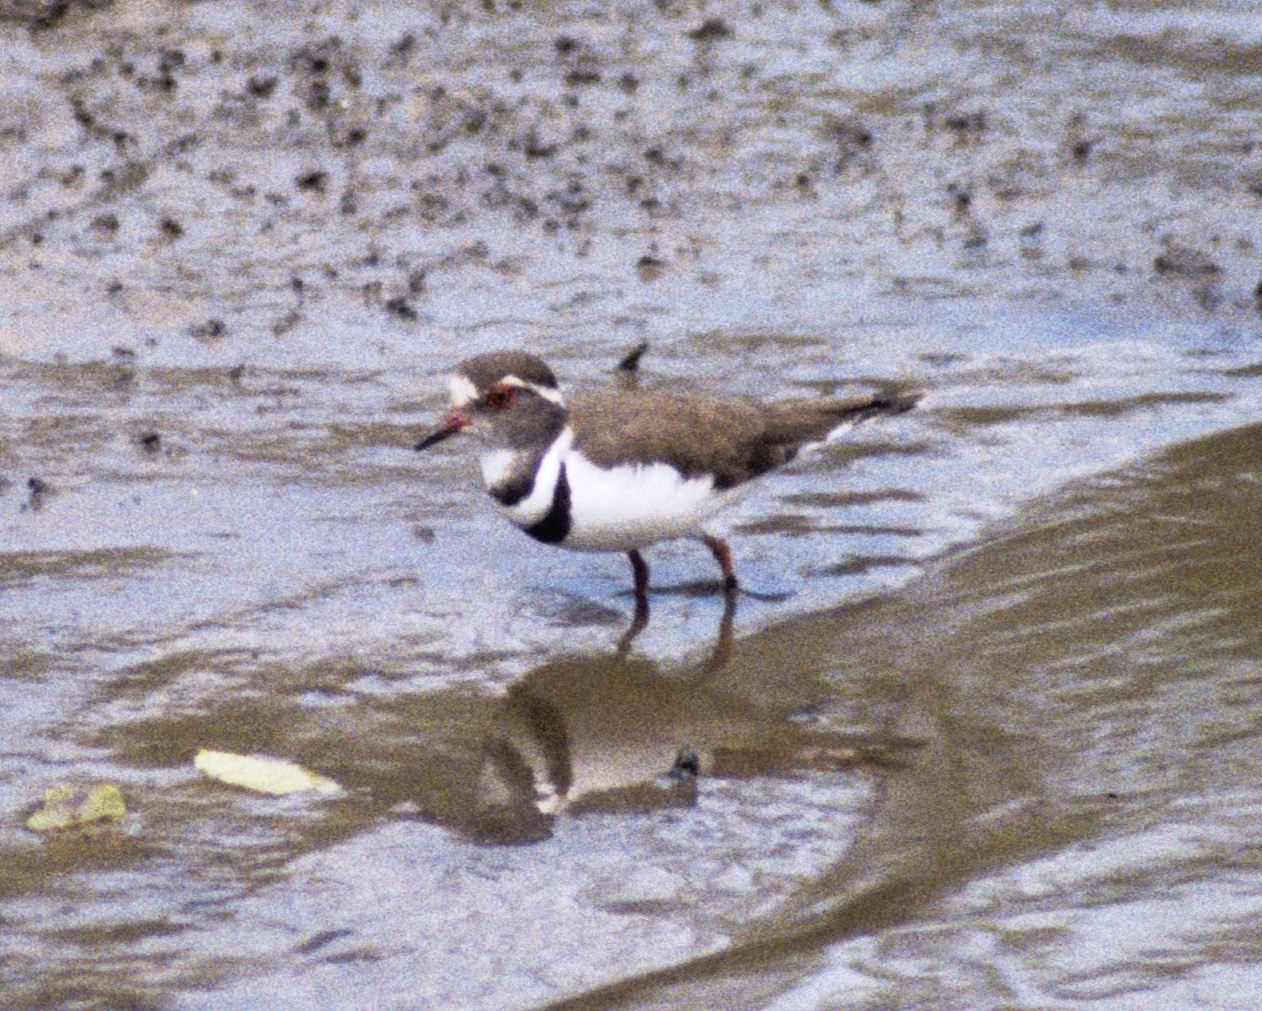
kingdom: Animalia
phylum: Chordata
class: Aves
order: Charadriiformes
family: Charadriidae
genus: Charadrius
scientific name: Charadrius tricollaris
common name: Three-banded plover
